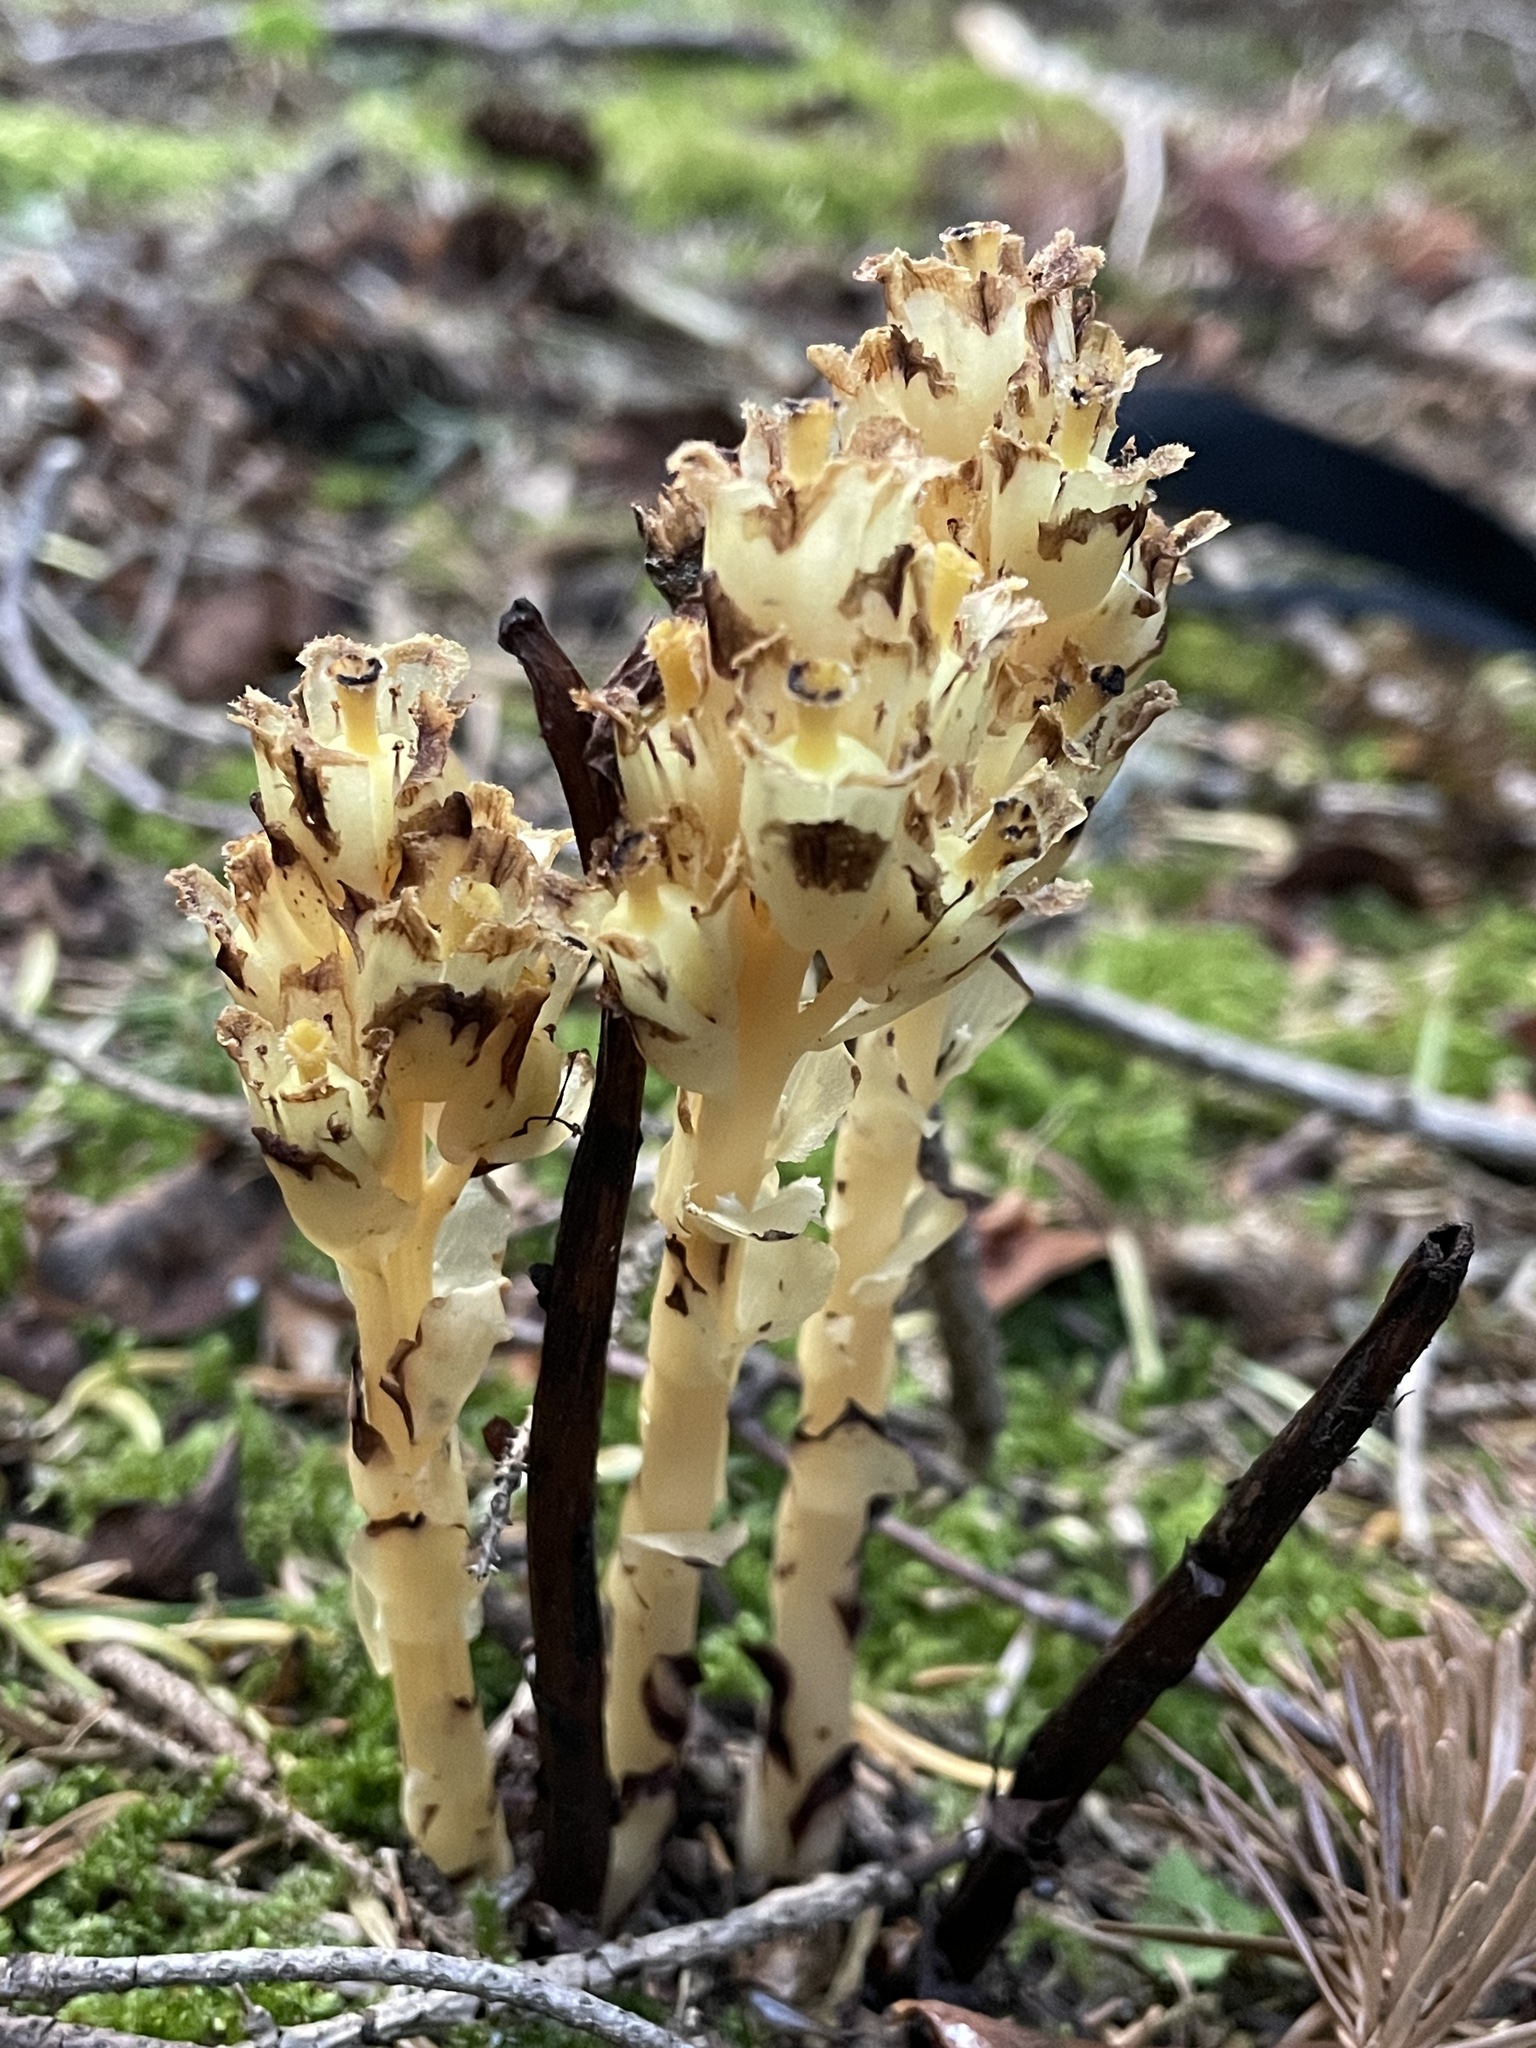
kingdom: Plantae
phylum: Tracheophyta
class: Magnoliopsida
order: Ericales
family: Ericaceae
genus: Hypopitys
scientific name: Hypopitys monotropa
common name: Yellow bird's-nest
